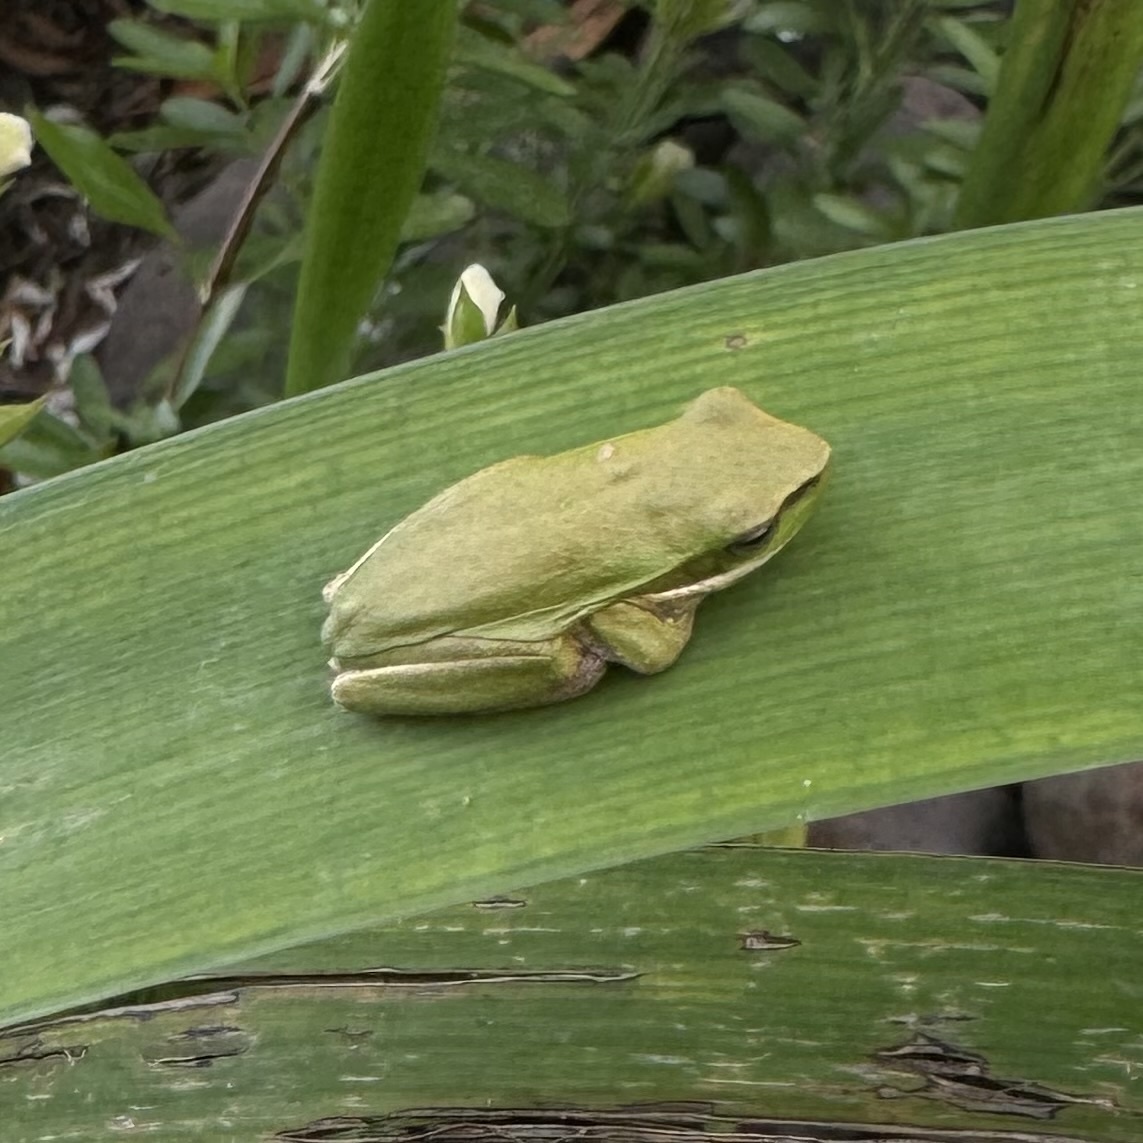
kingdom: Animalia
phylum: Chordata
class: Amphibia
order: Anura
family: Pelodryadidae
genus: Litoria
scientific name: Litoria fallax
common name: Eastern dwarf treefrog
